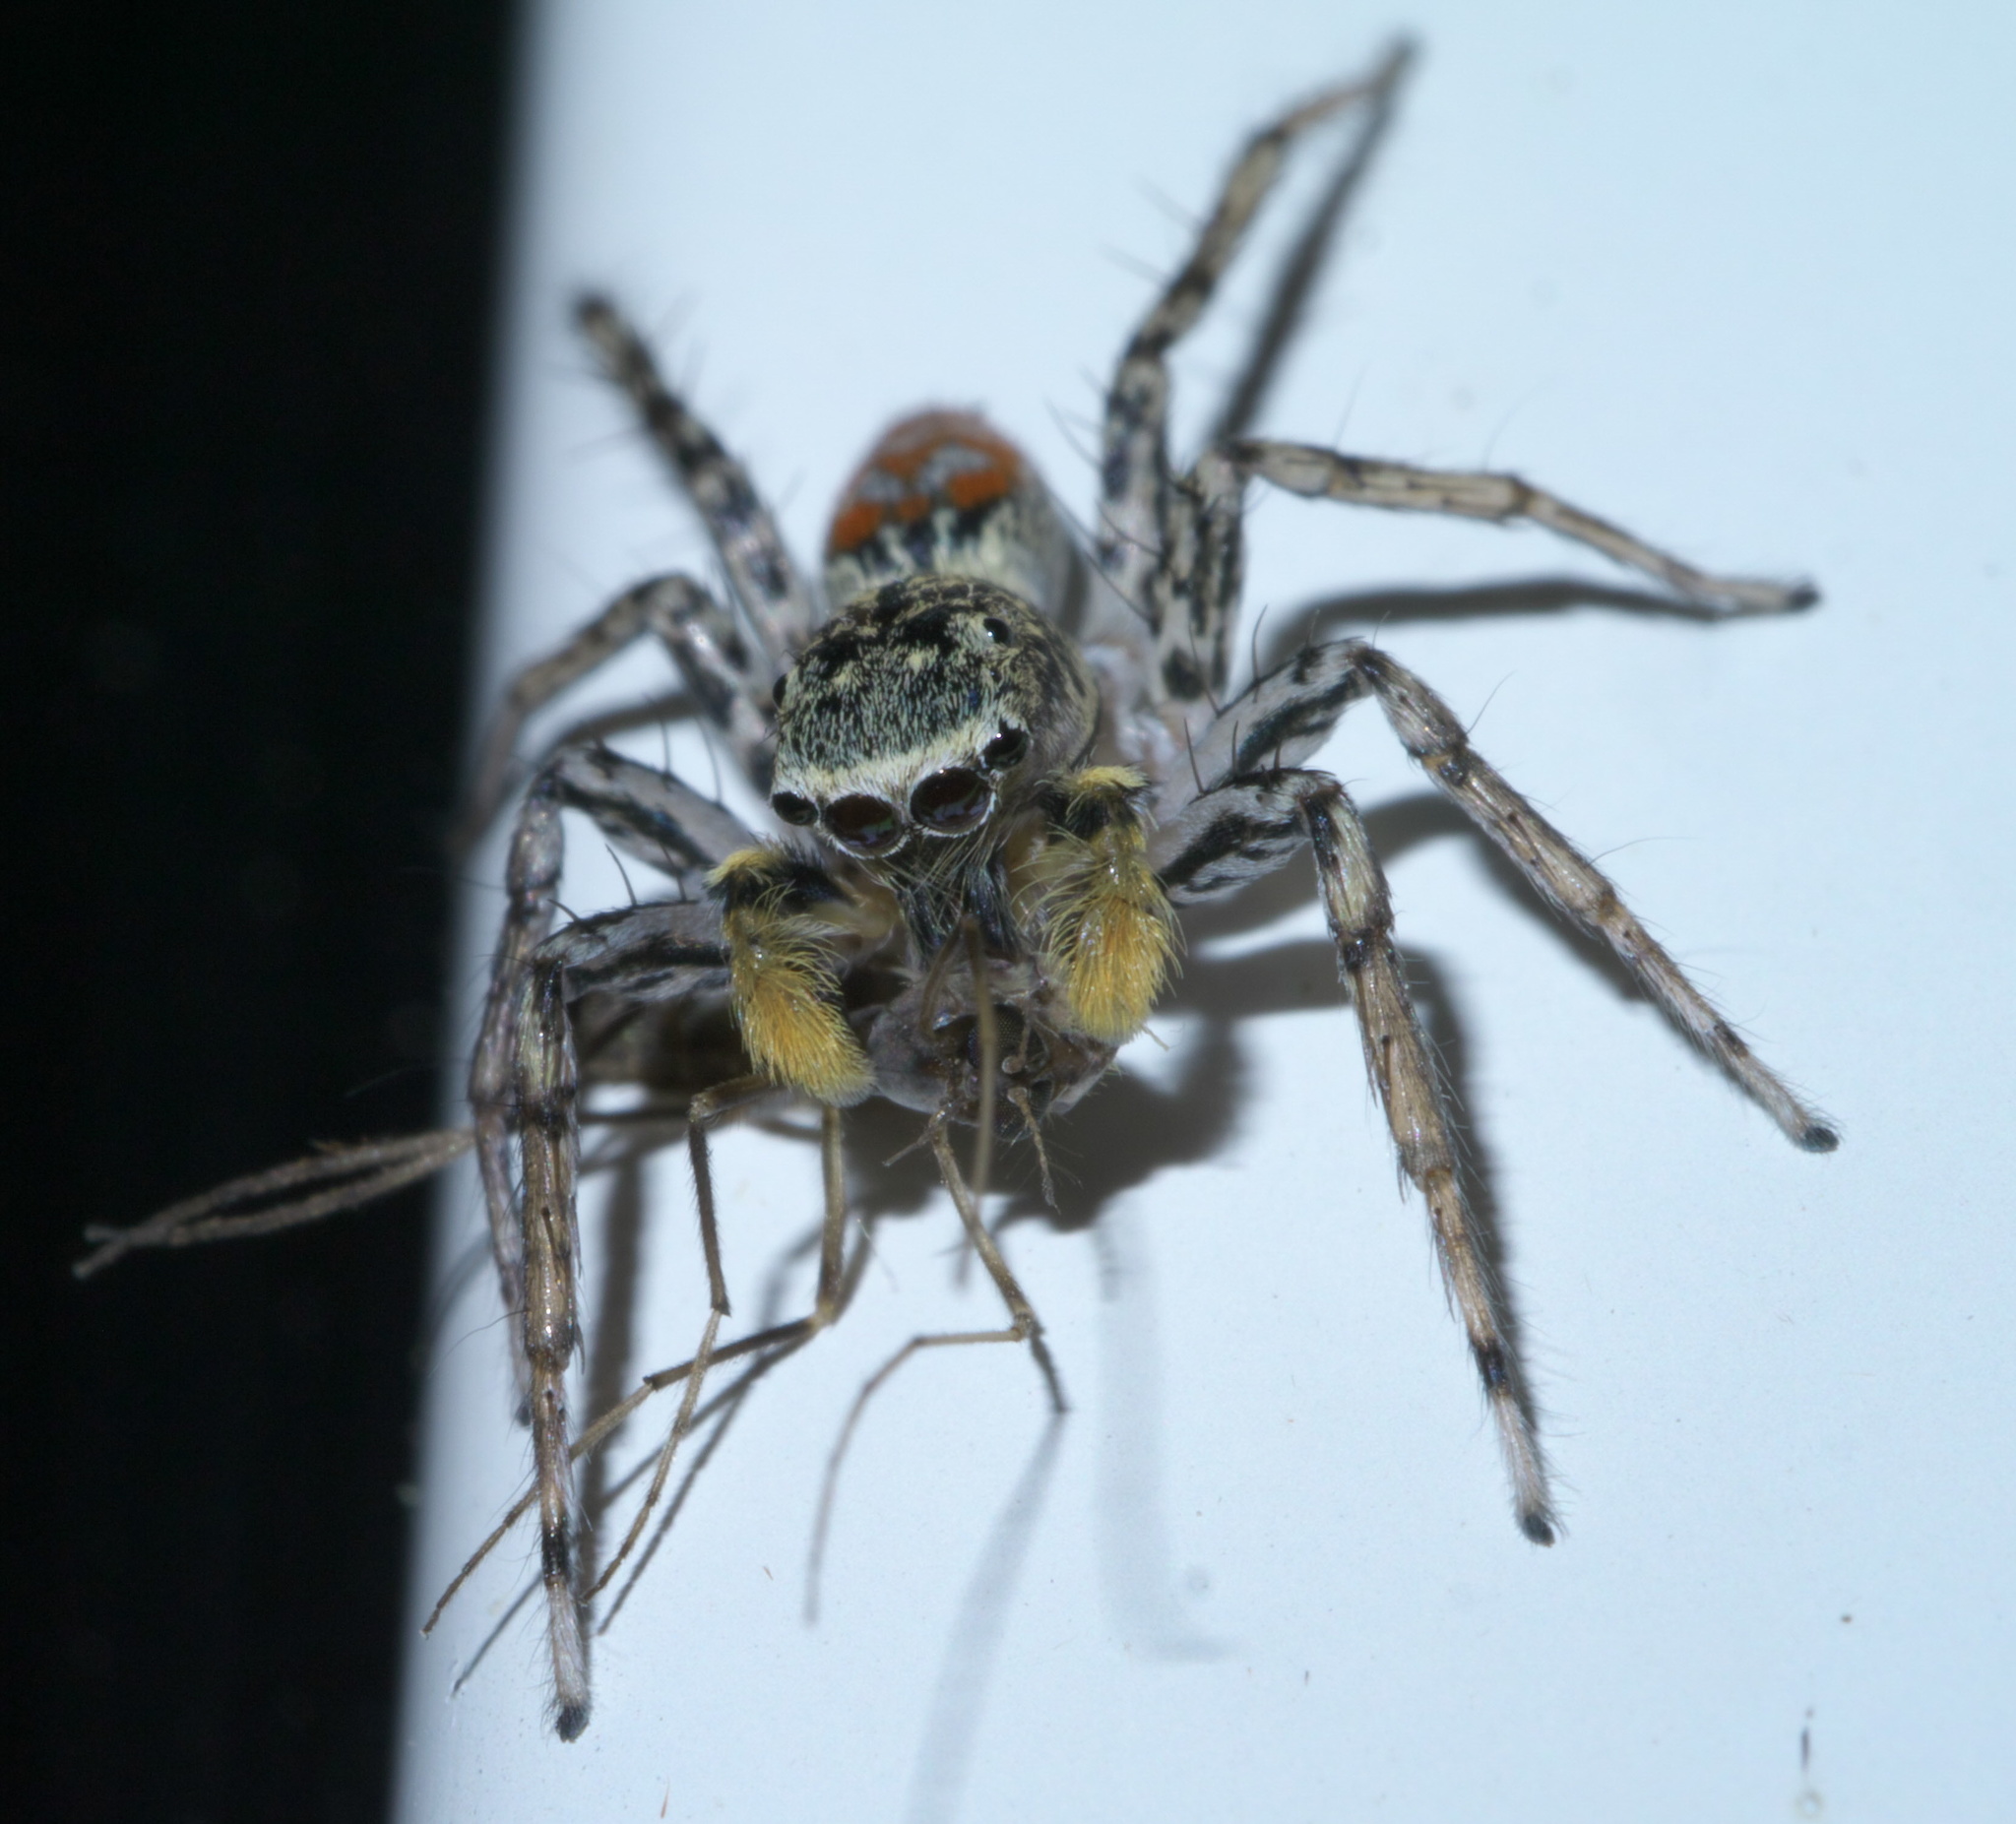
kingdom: Animalia
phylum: Arthropoda
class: Arachnida
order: Araneae
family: Salticidae
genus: Maevia
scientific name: Maevia inclemens
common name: Dimorphic jumper
